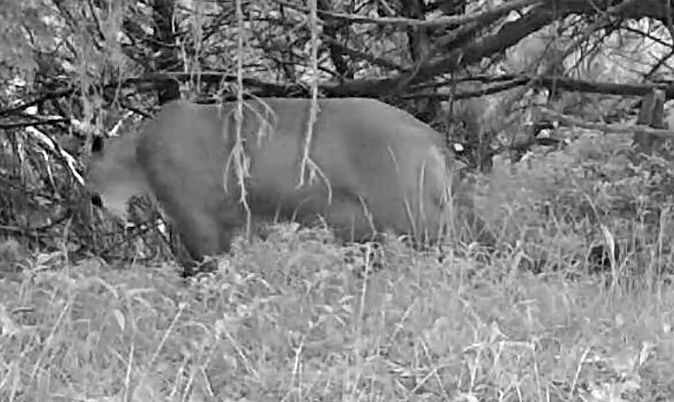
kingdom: Animalia
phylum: Chordata
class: Mammalia
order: Carnivora
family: Felidae
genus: Puma
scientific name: Puma concolor
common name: Puma
